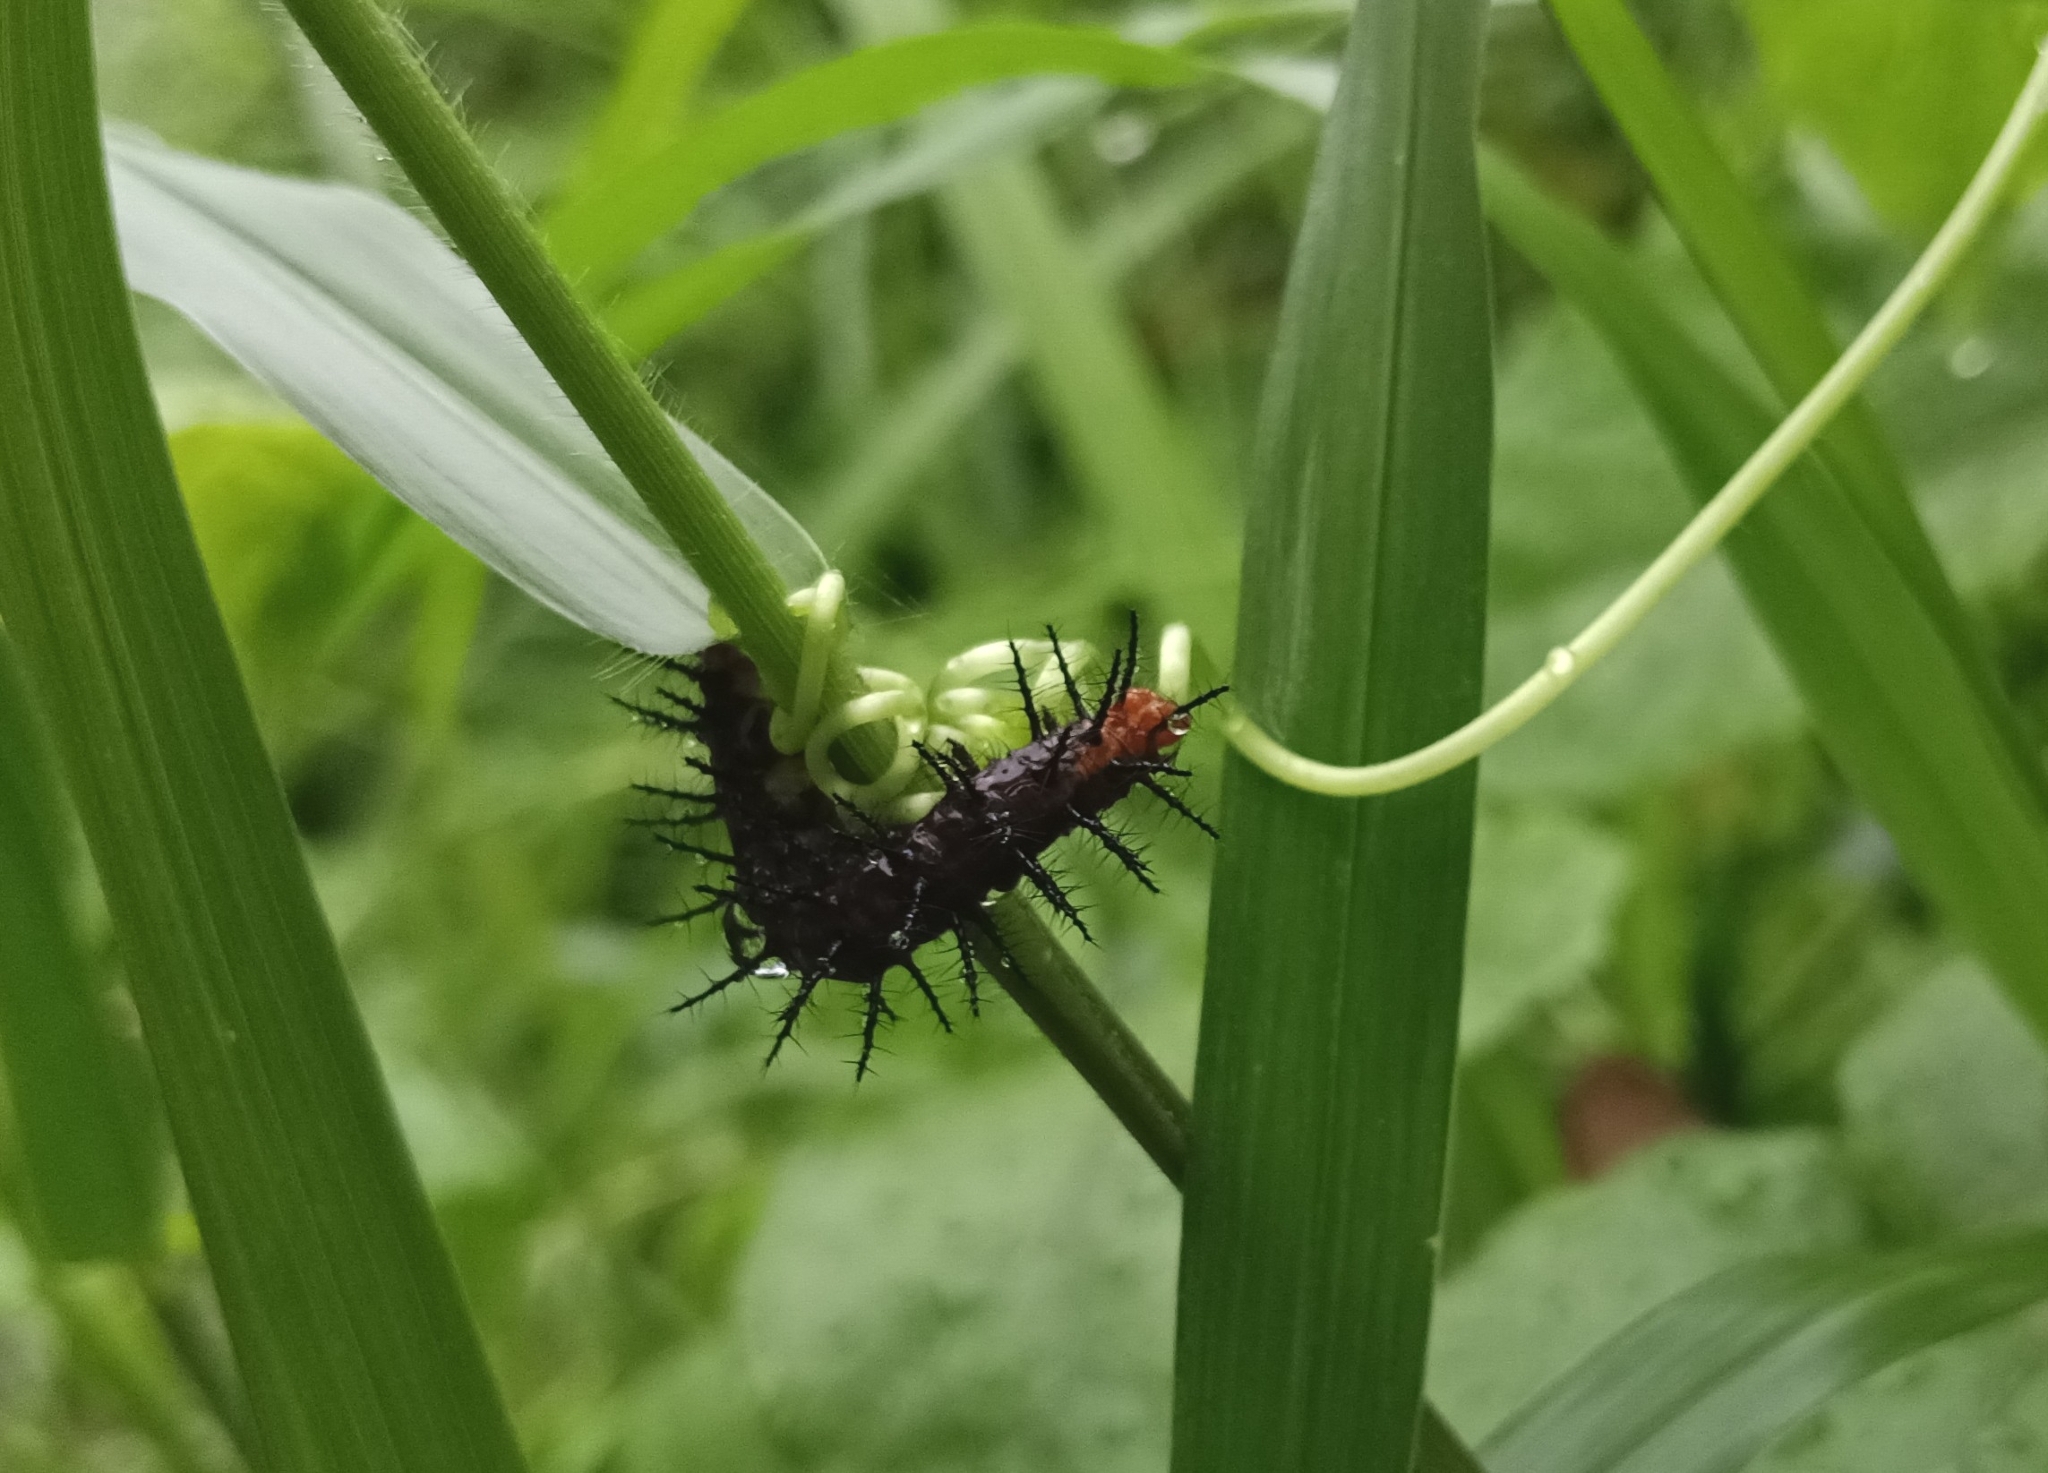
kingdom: Animalia
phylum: Arthropoda
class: Insecta
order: Lepidoptera
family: Nymphalidae
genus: Acraea
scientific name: Acraea terpsicore
